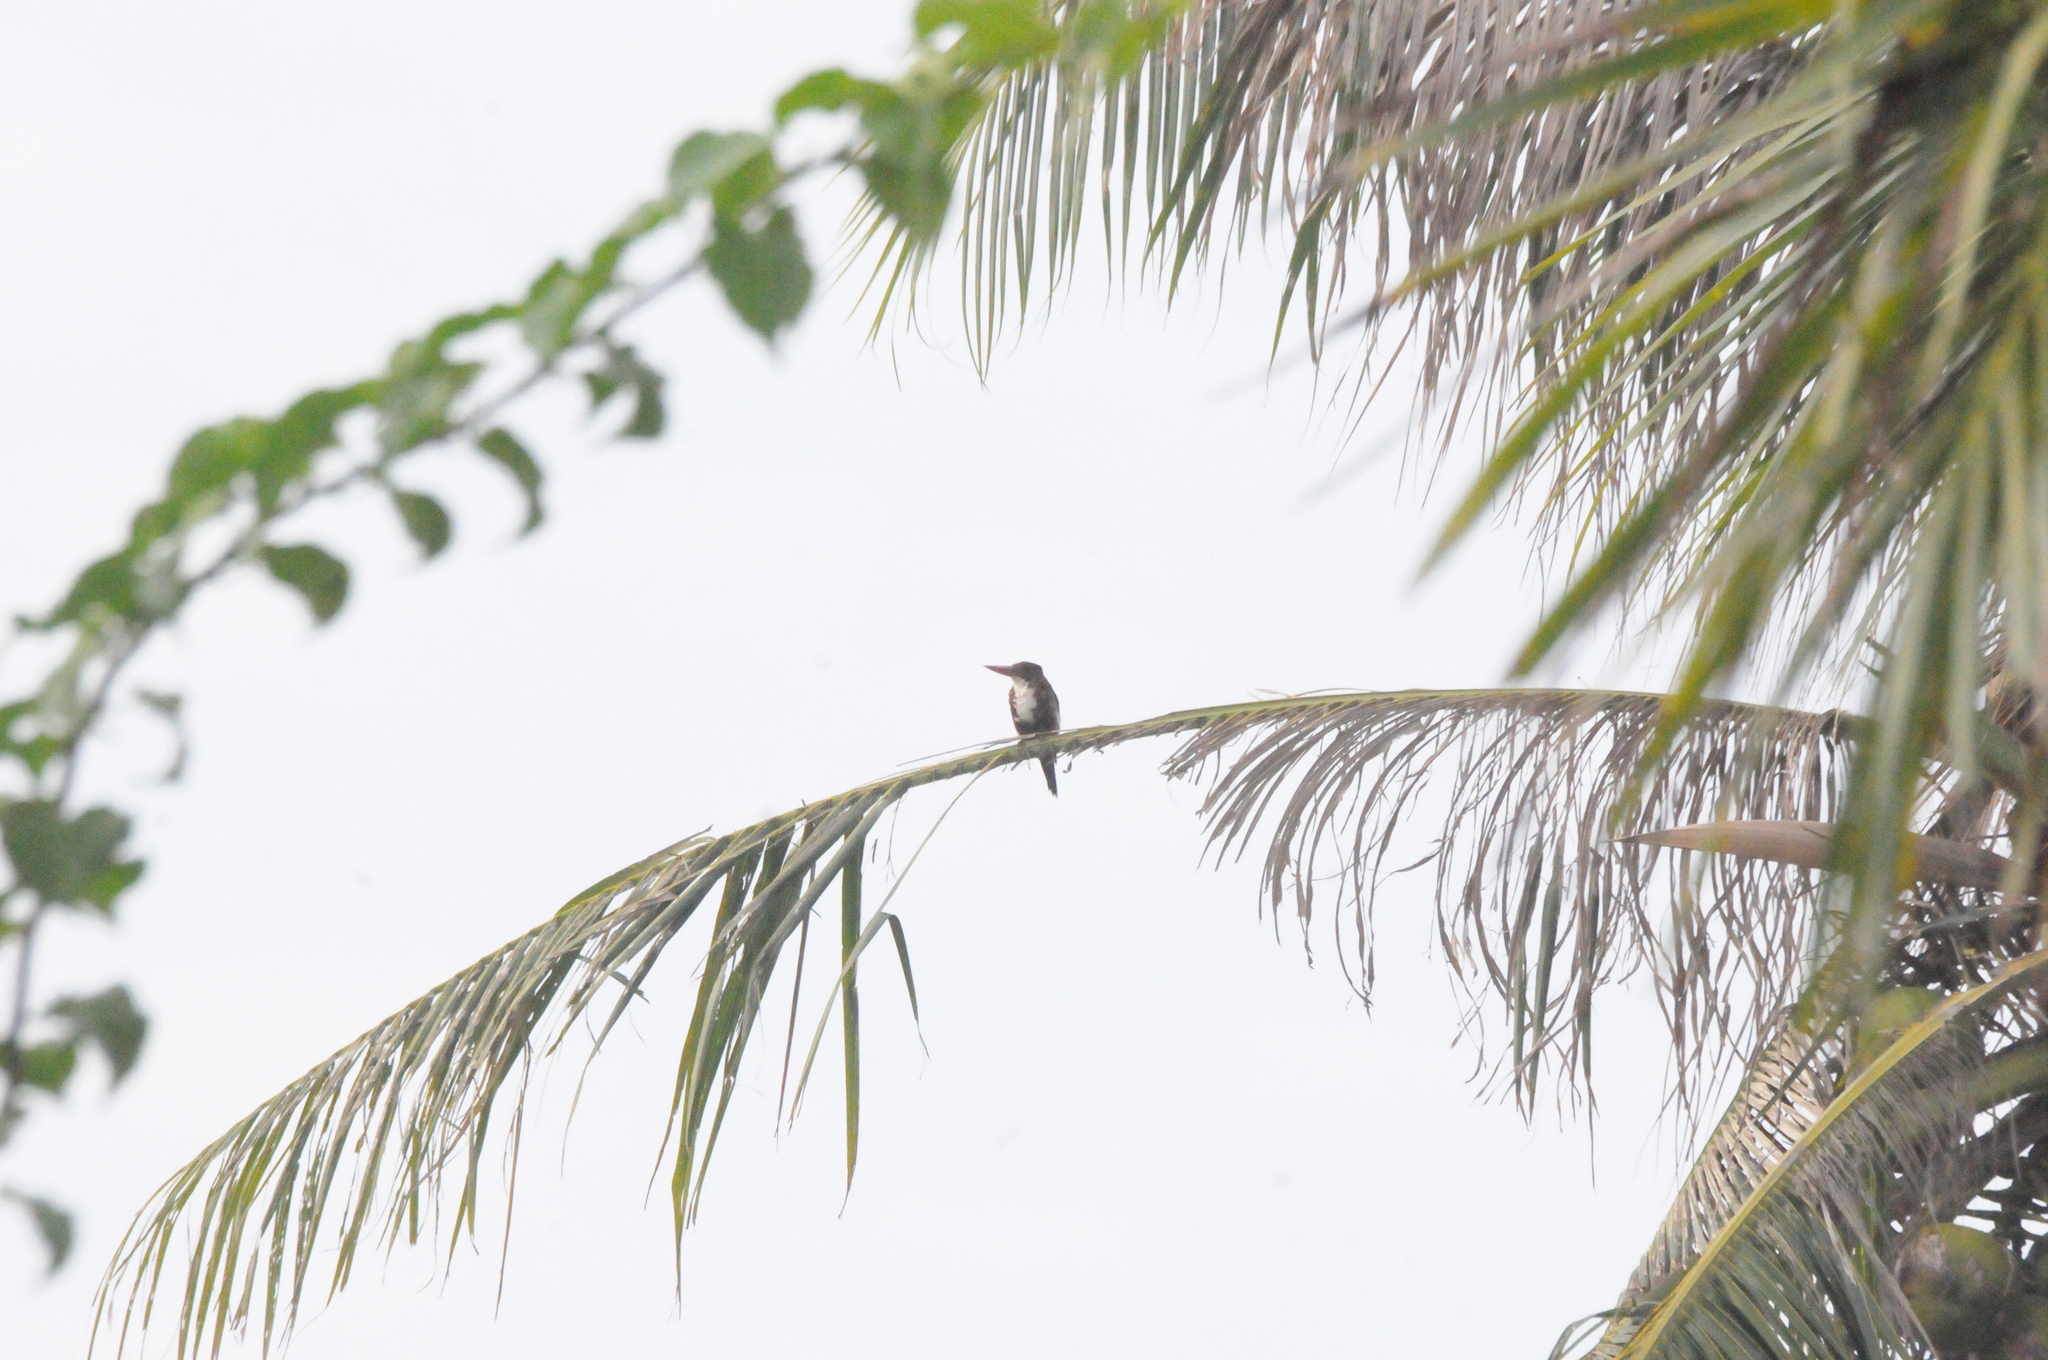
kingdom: Animalia
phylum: Chordata
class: Aves
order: Coraciiformes
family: Alcedinidae
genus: Halcyon
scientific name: Halcyon smyrnensis
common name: White-throated kingfisher
